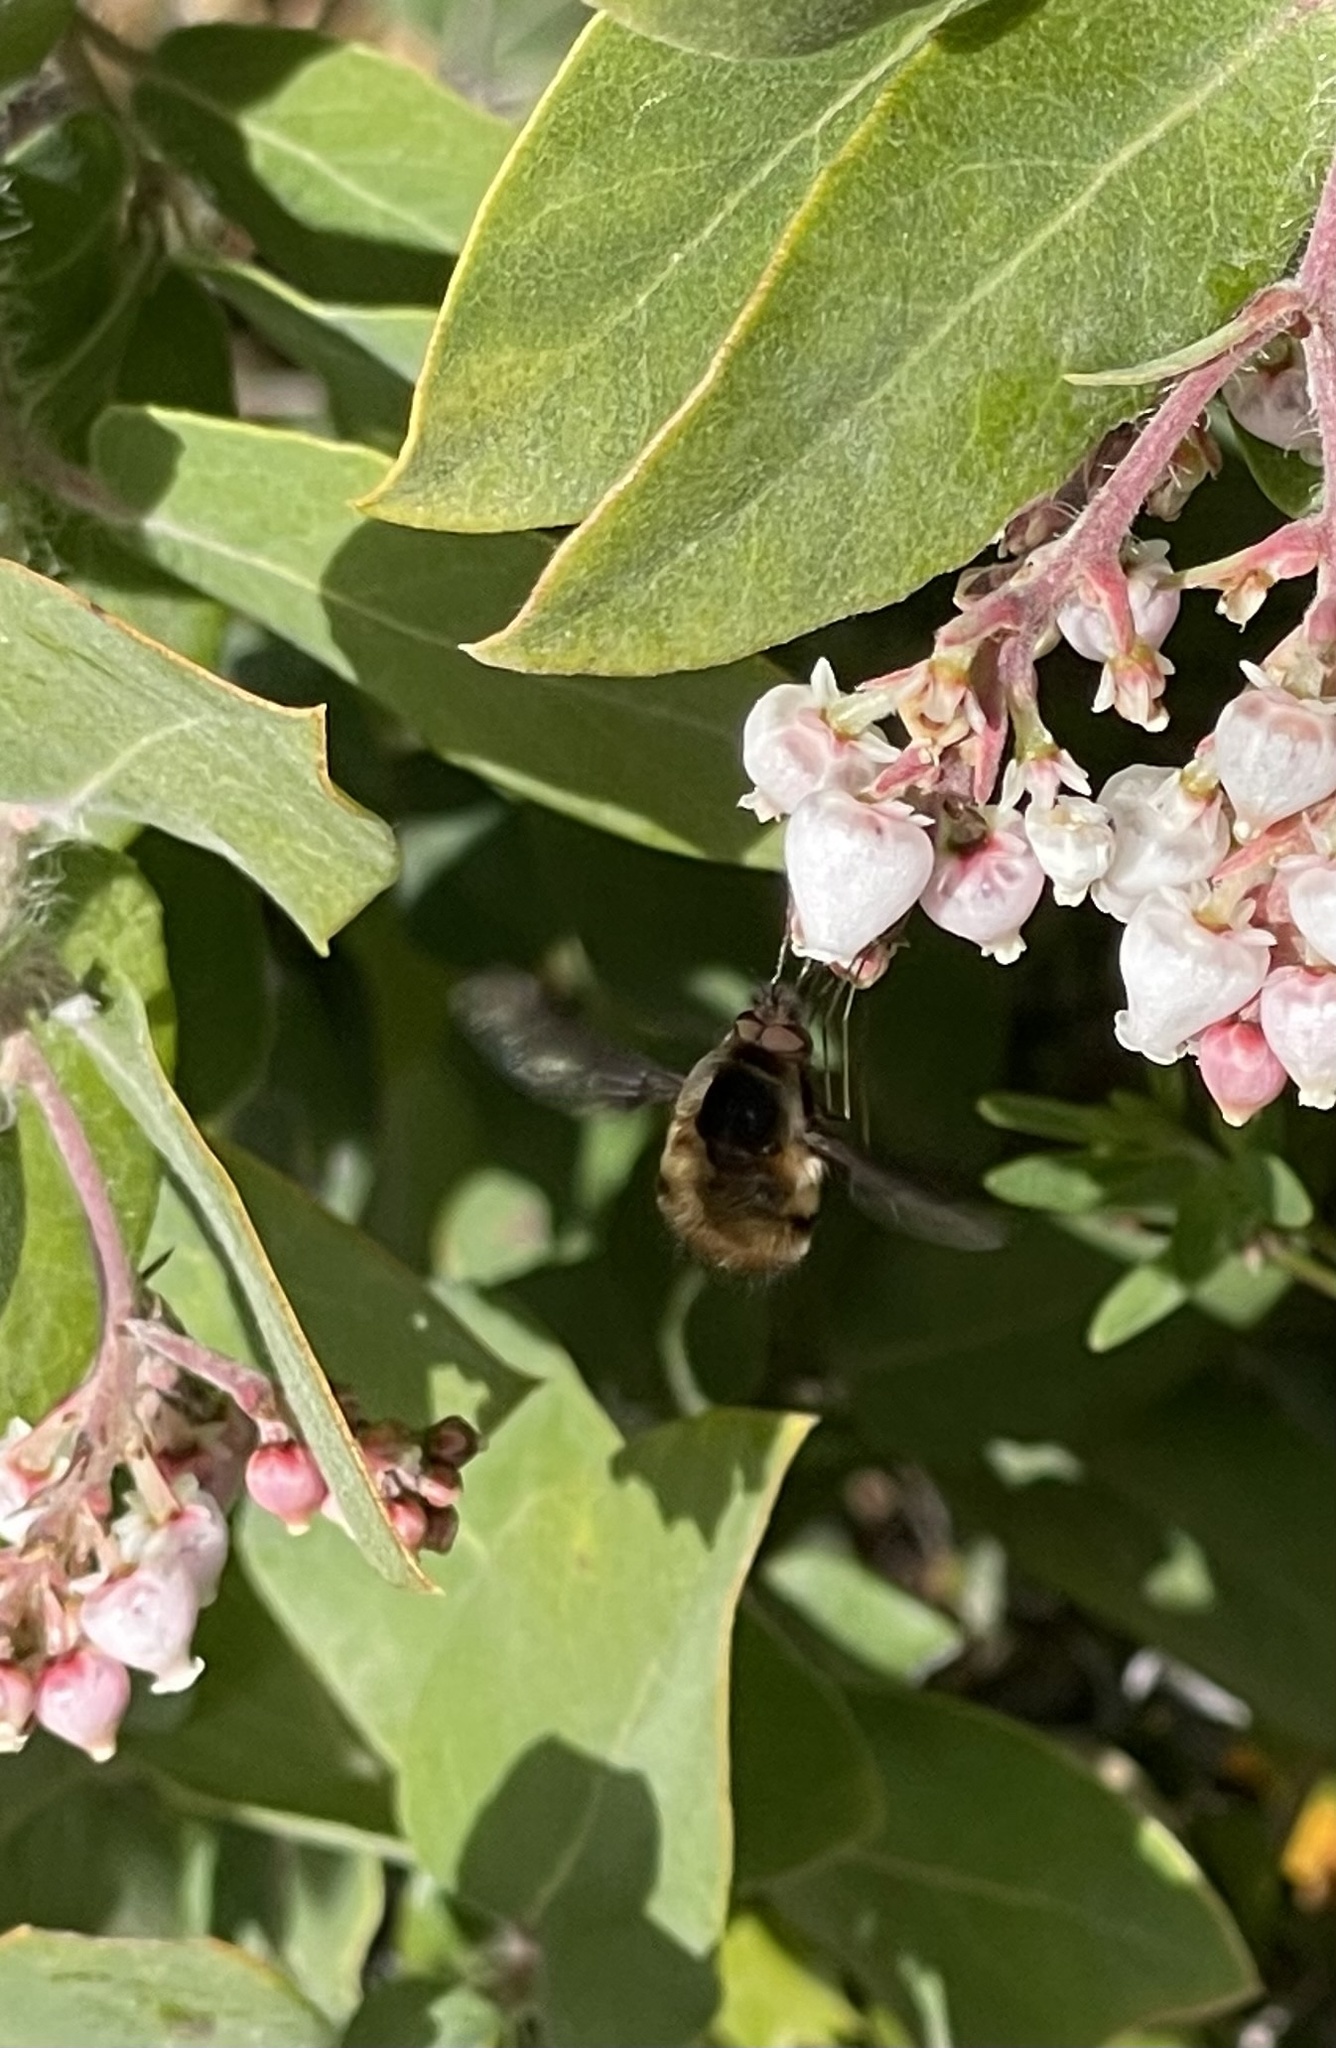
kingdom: Animalia
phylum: Arthropoda
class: Insecta
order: Diptera
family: Bombyliidae
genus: Bombylius
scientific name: Bombylius major
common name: Bee fly
